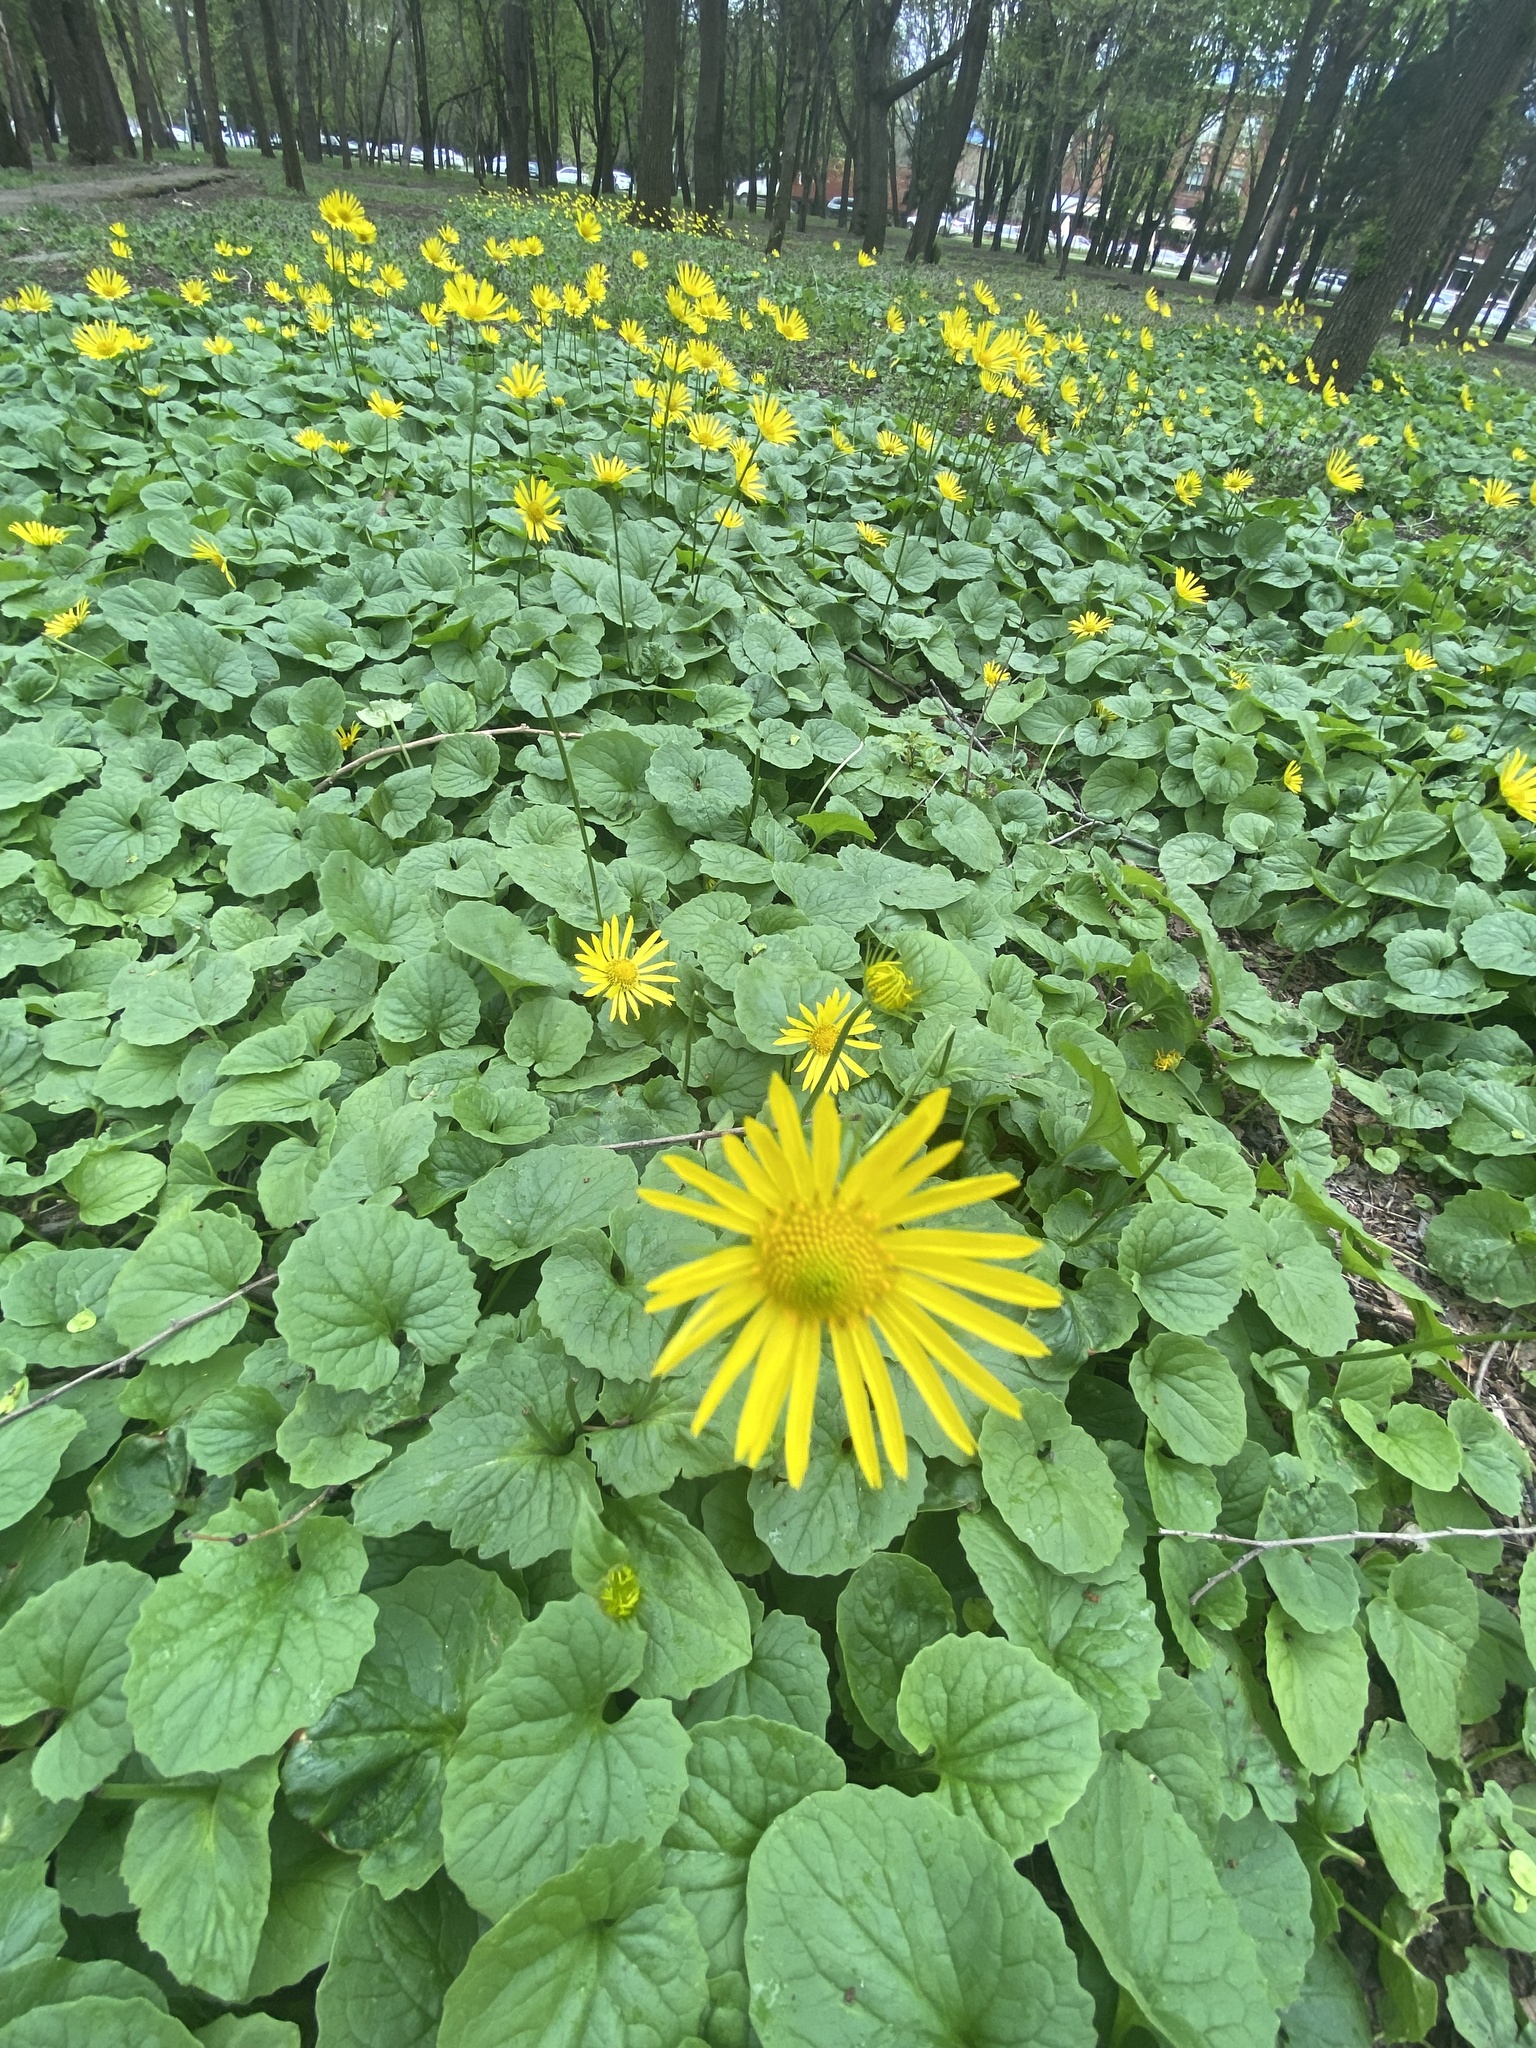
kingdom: Plantae
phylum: Tracheophyta
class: Magnoliopsida
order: Asterales
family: Asteraceae
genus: Doronicum
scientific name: Doronicum
